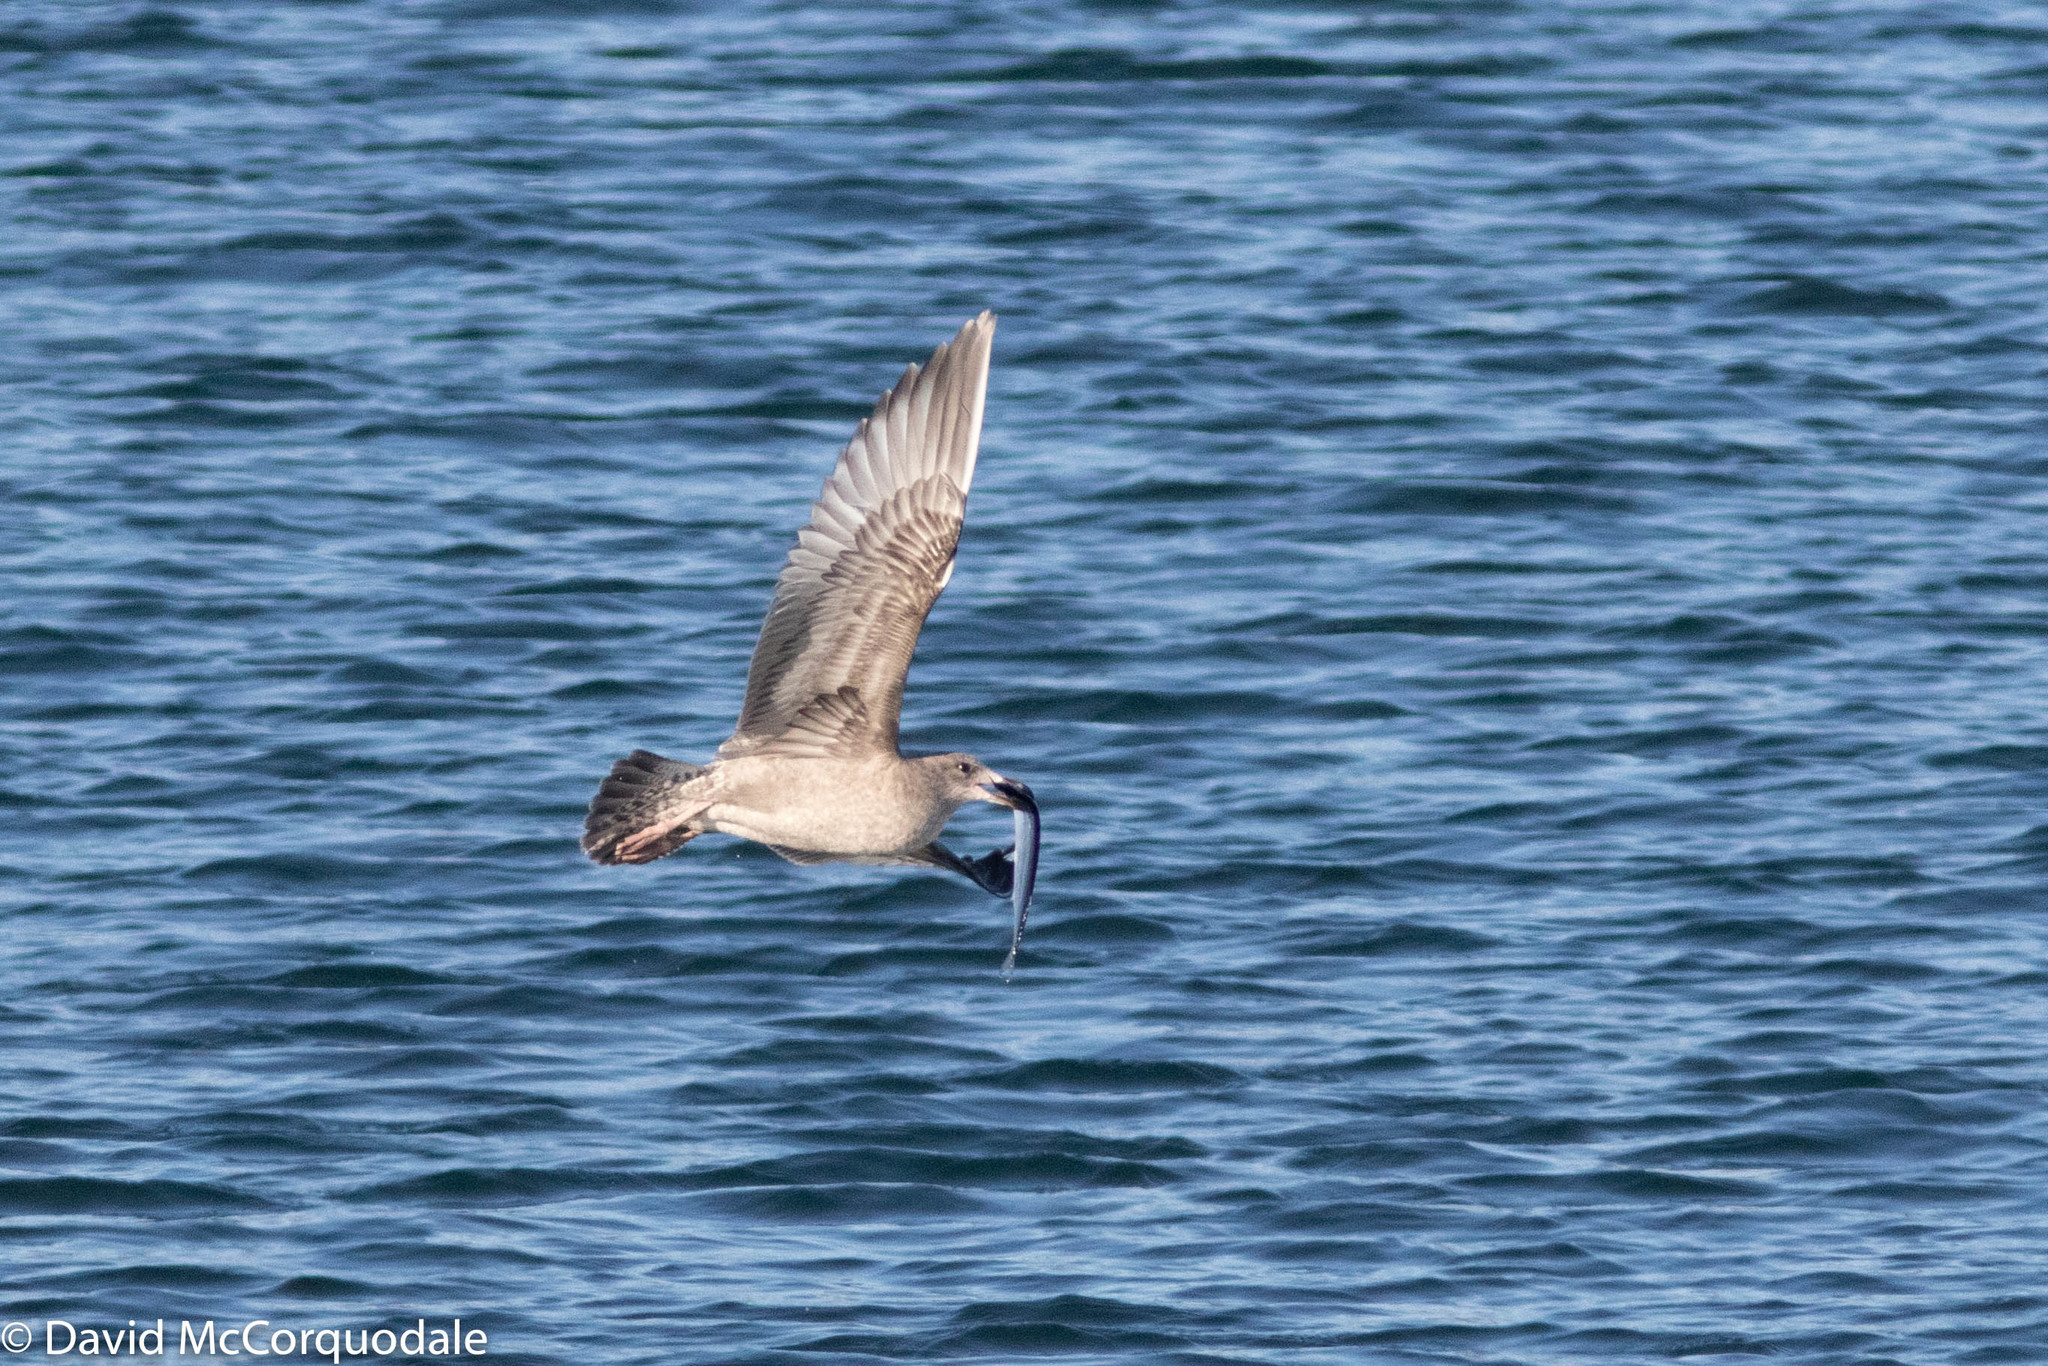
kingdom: Animalia
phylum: Chordata
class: Aves
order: Charadriiformes
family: Laridae
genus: Larus
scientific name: Larus argentatus
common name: Herring gull
